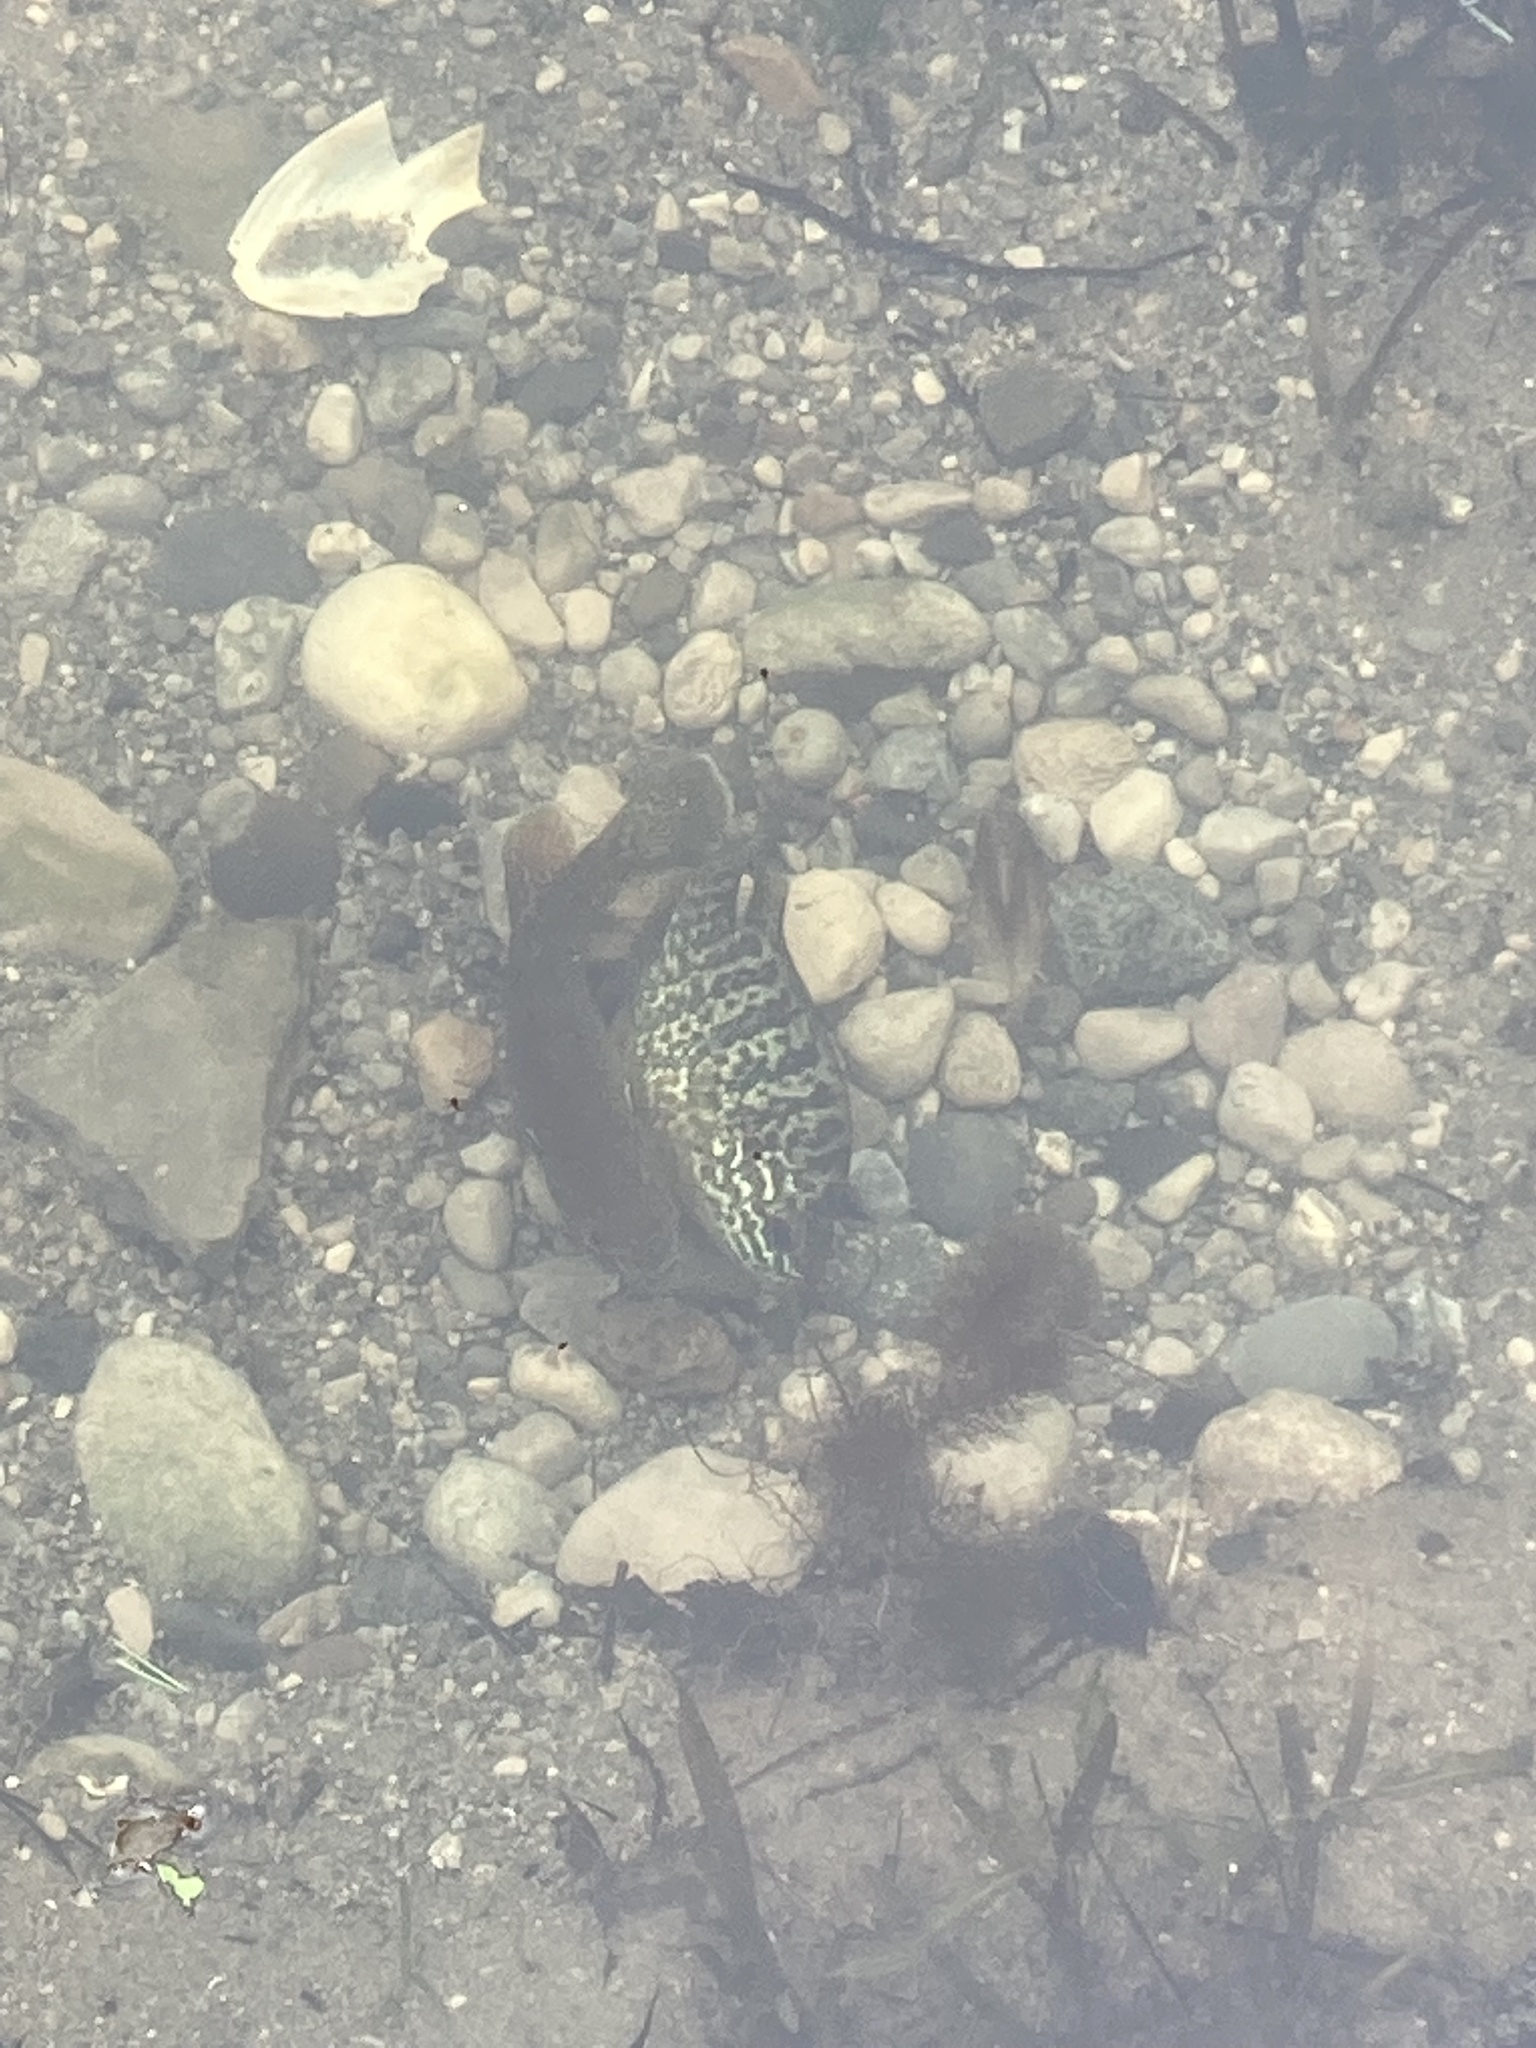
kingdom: Animalia
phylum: Chordata
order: Perciformes
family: Centrarchidae
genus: Lepomis
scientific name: Lepomis gibbosus
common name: Pumpkinseed
